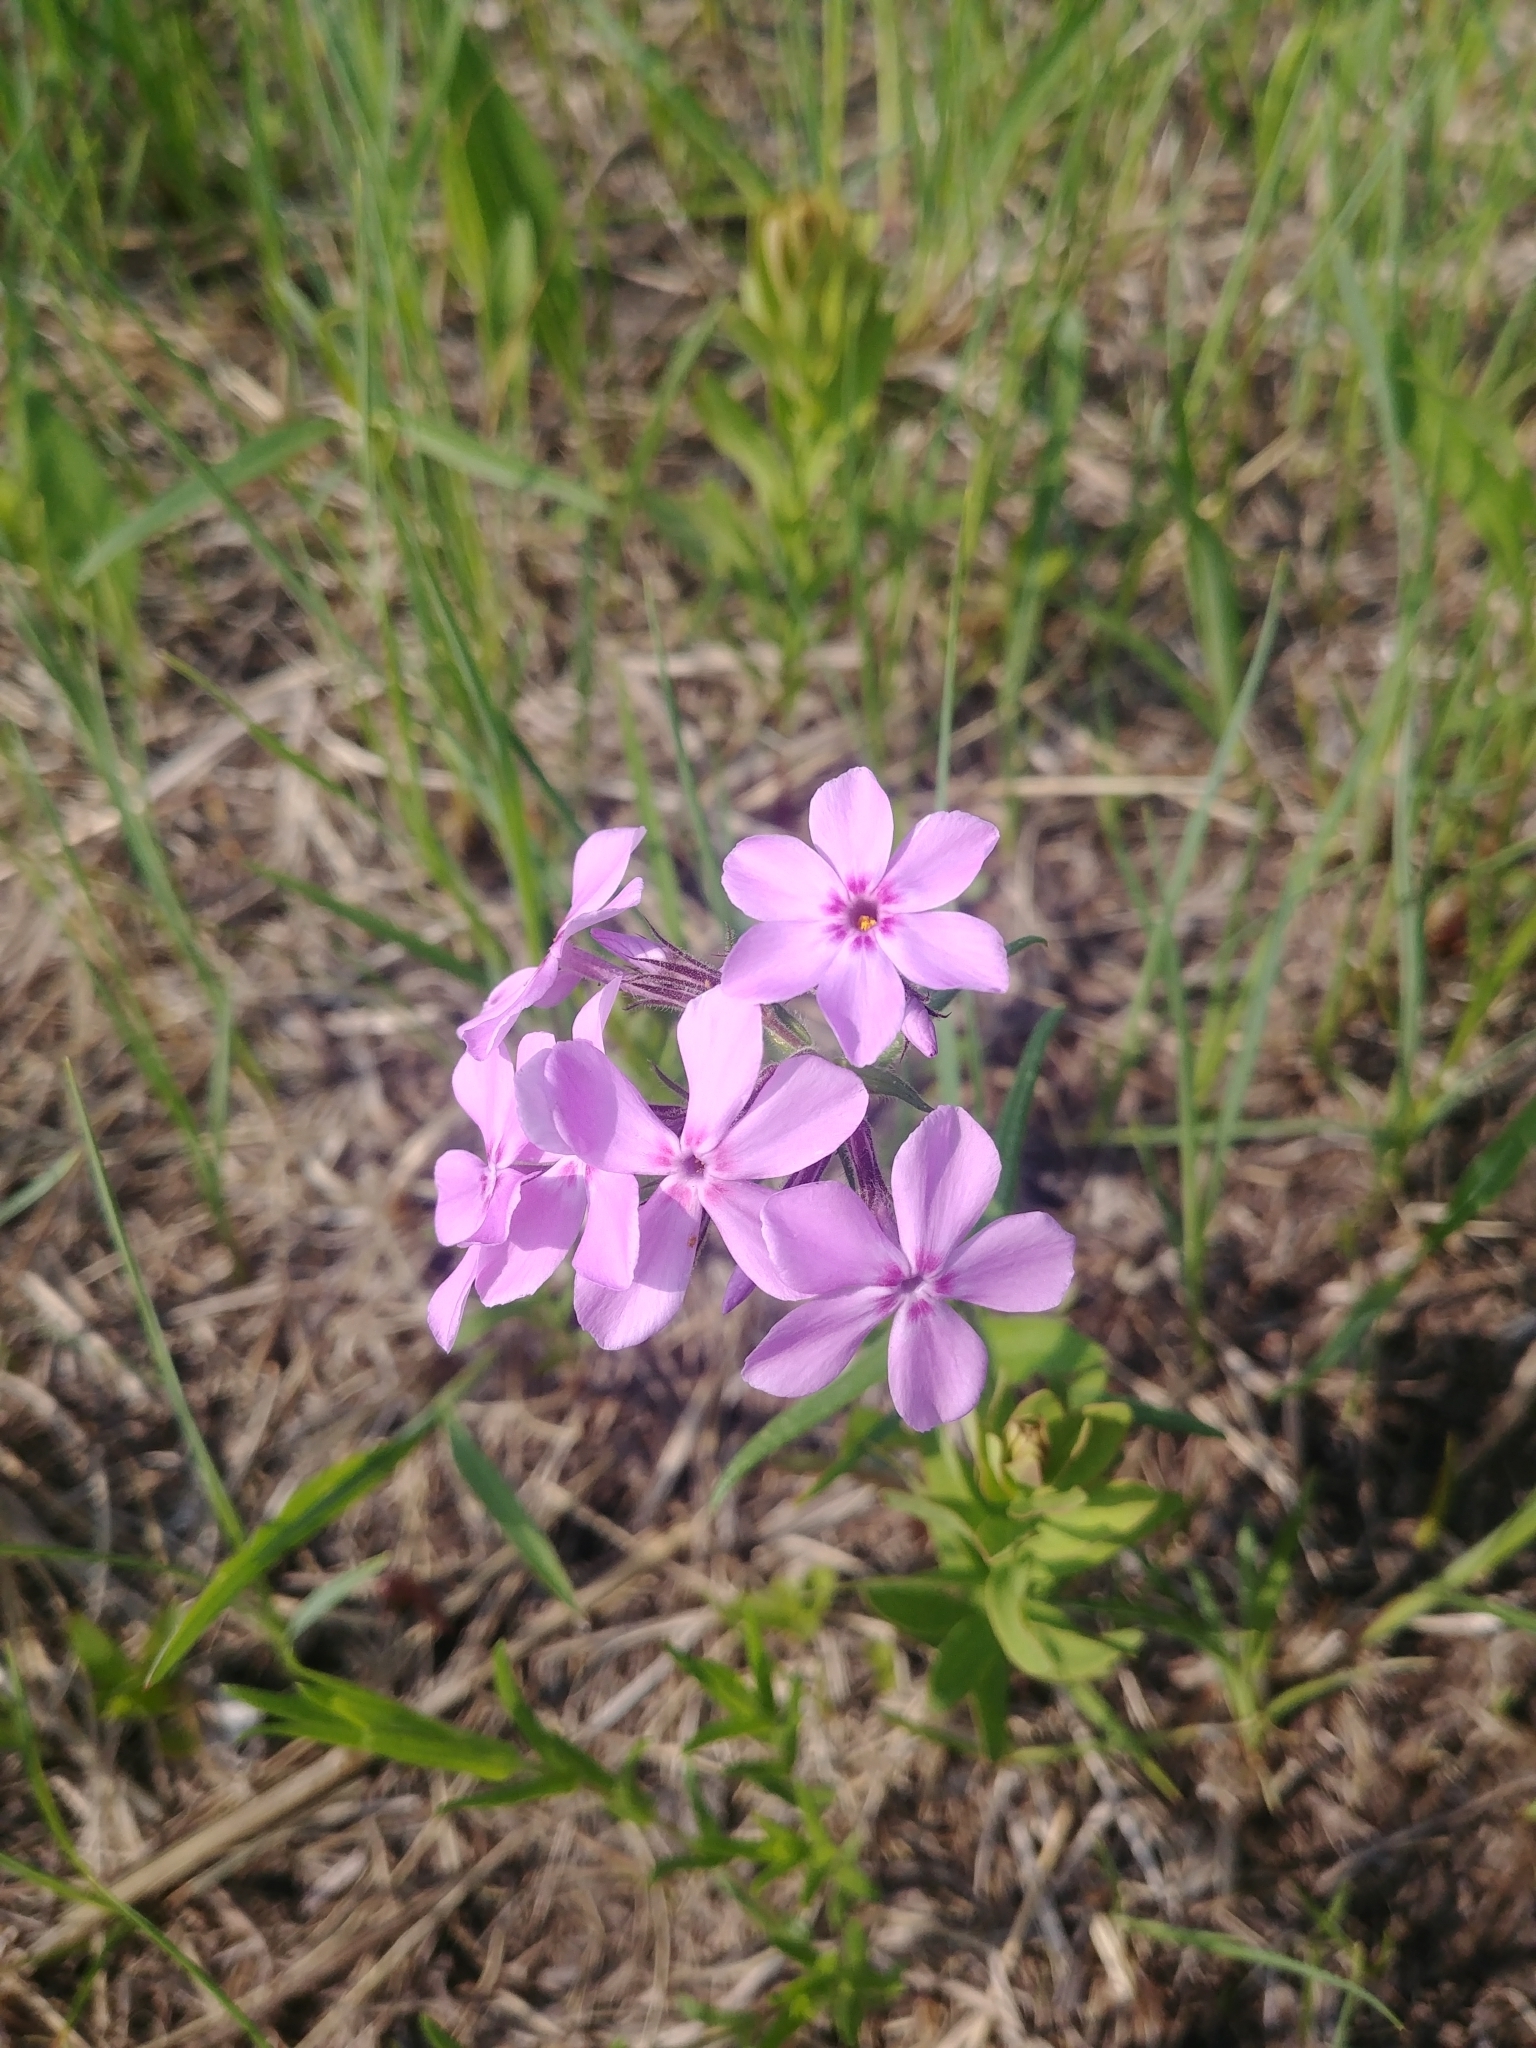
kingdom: Plantae
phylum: Tracheophyta
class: Magnoliopsida
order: Ericales
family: Polemoniaceae
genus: Phlox
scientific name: Phlox pilosa
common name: Prairie phlox
